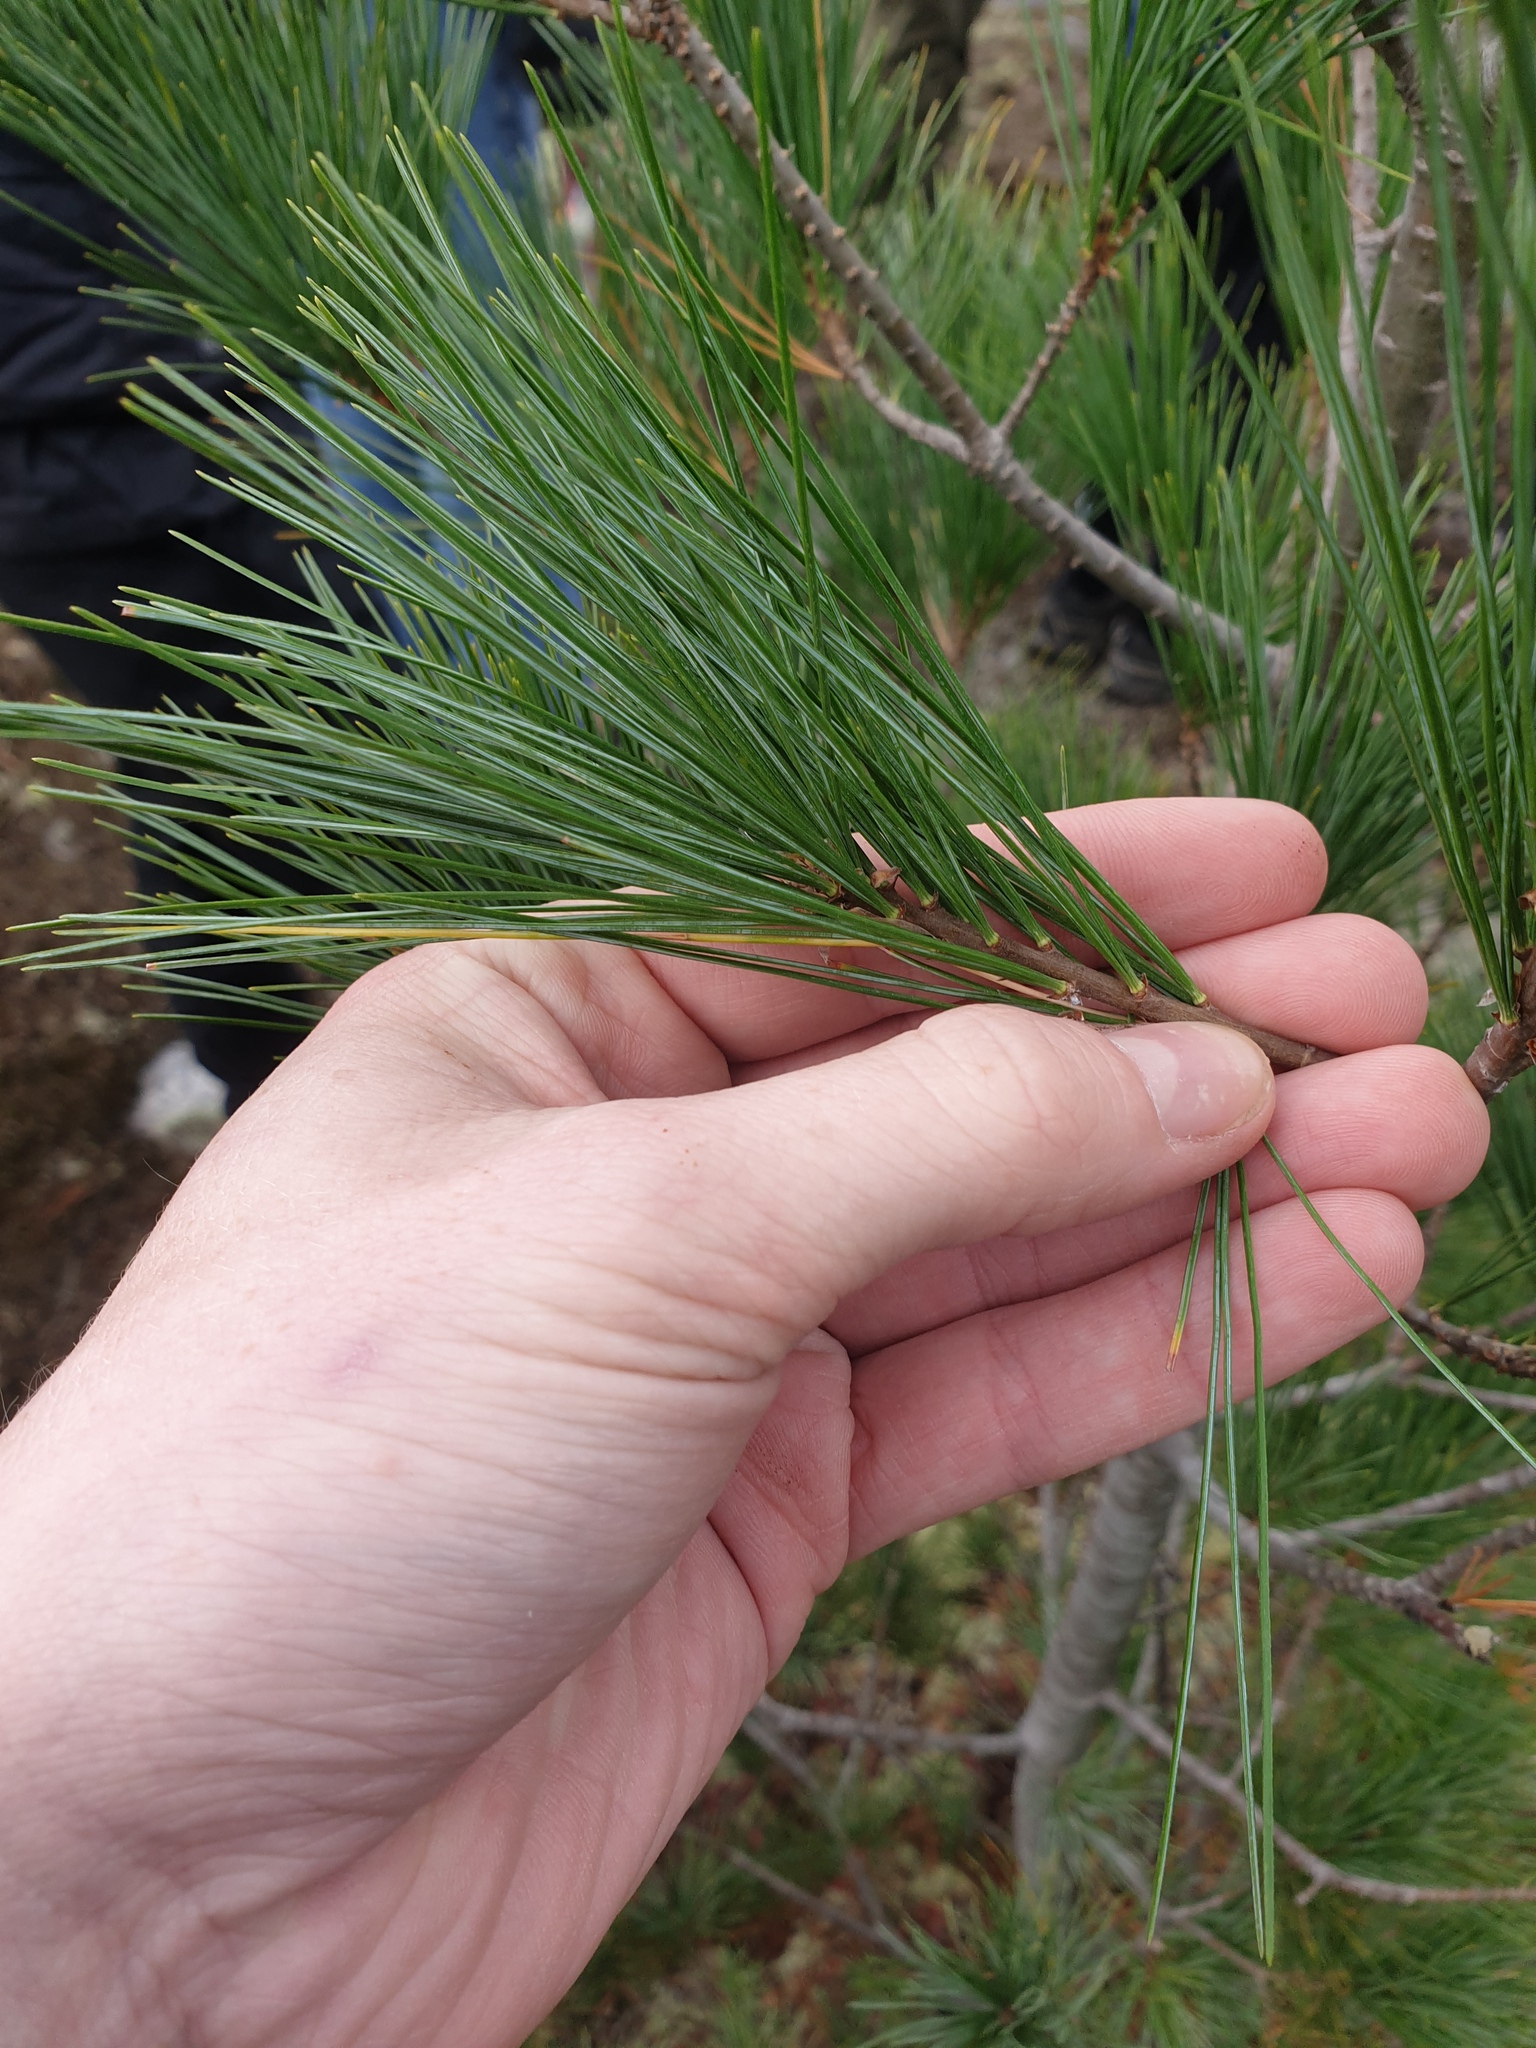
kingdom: Plantae
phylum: Tracheophyta
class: Pinopsida
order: Pinales
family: Pinaceae
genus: Pinus
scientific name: Pinus strobus
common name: Weymouth pine
